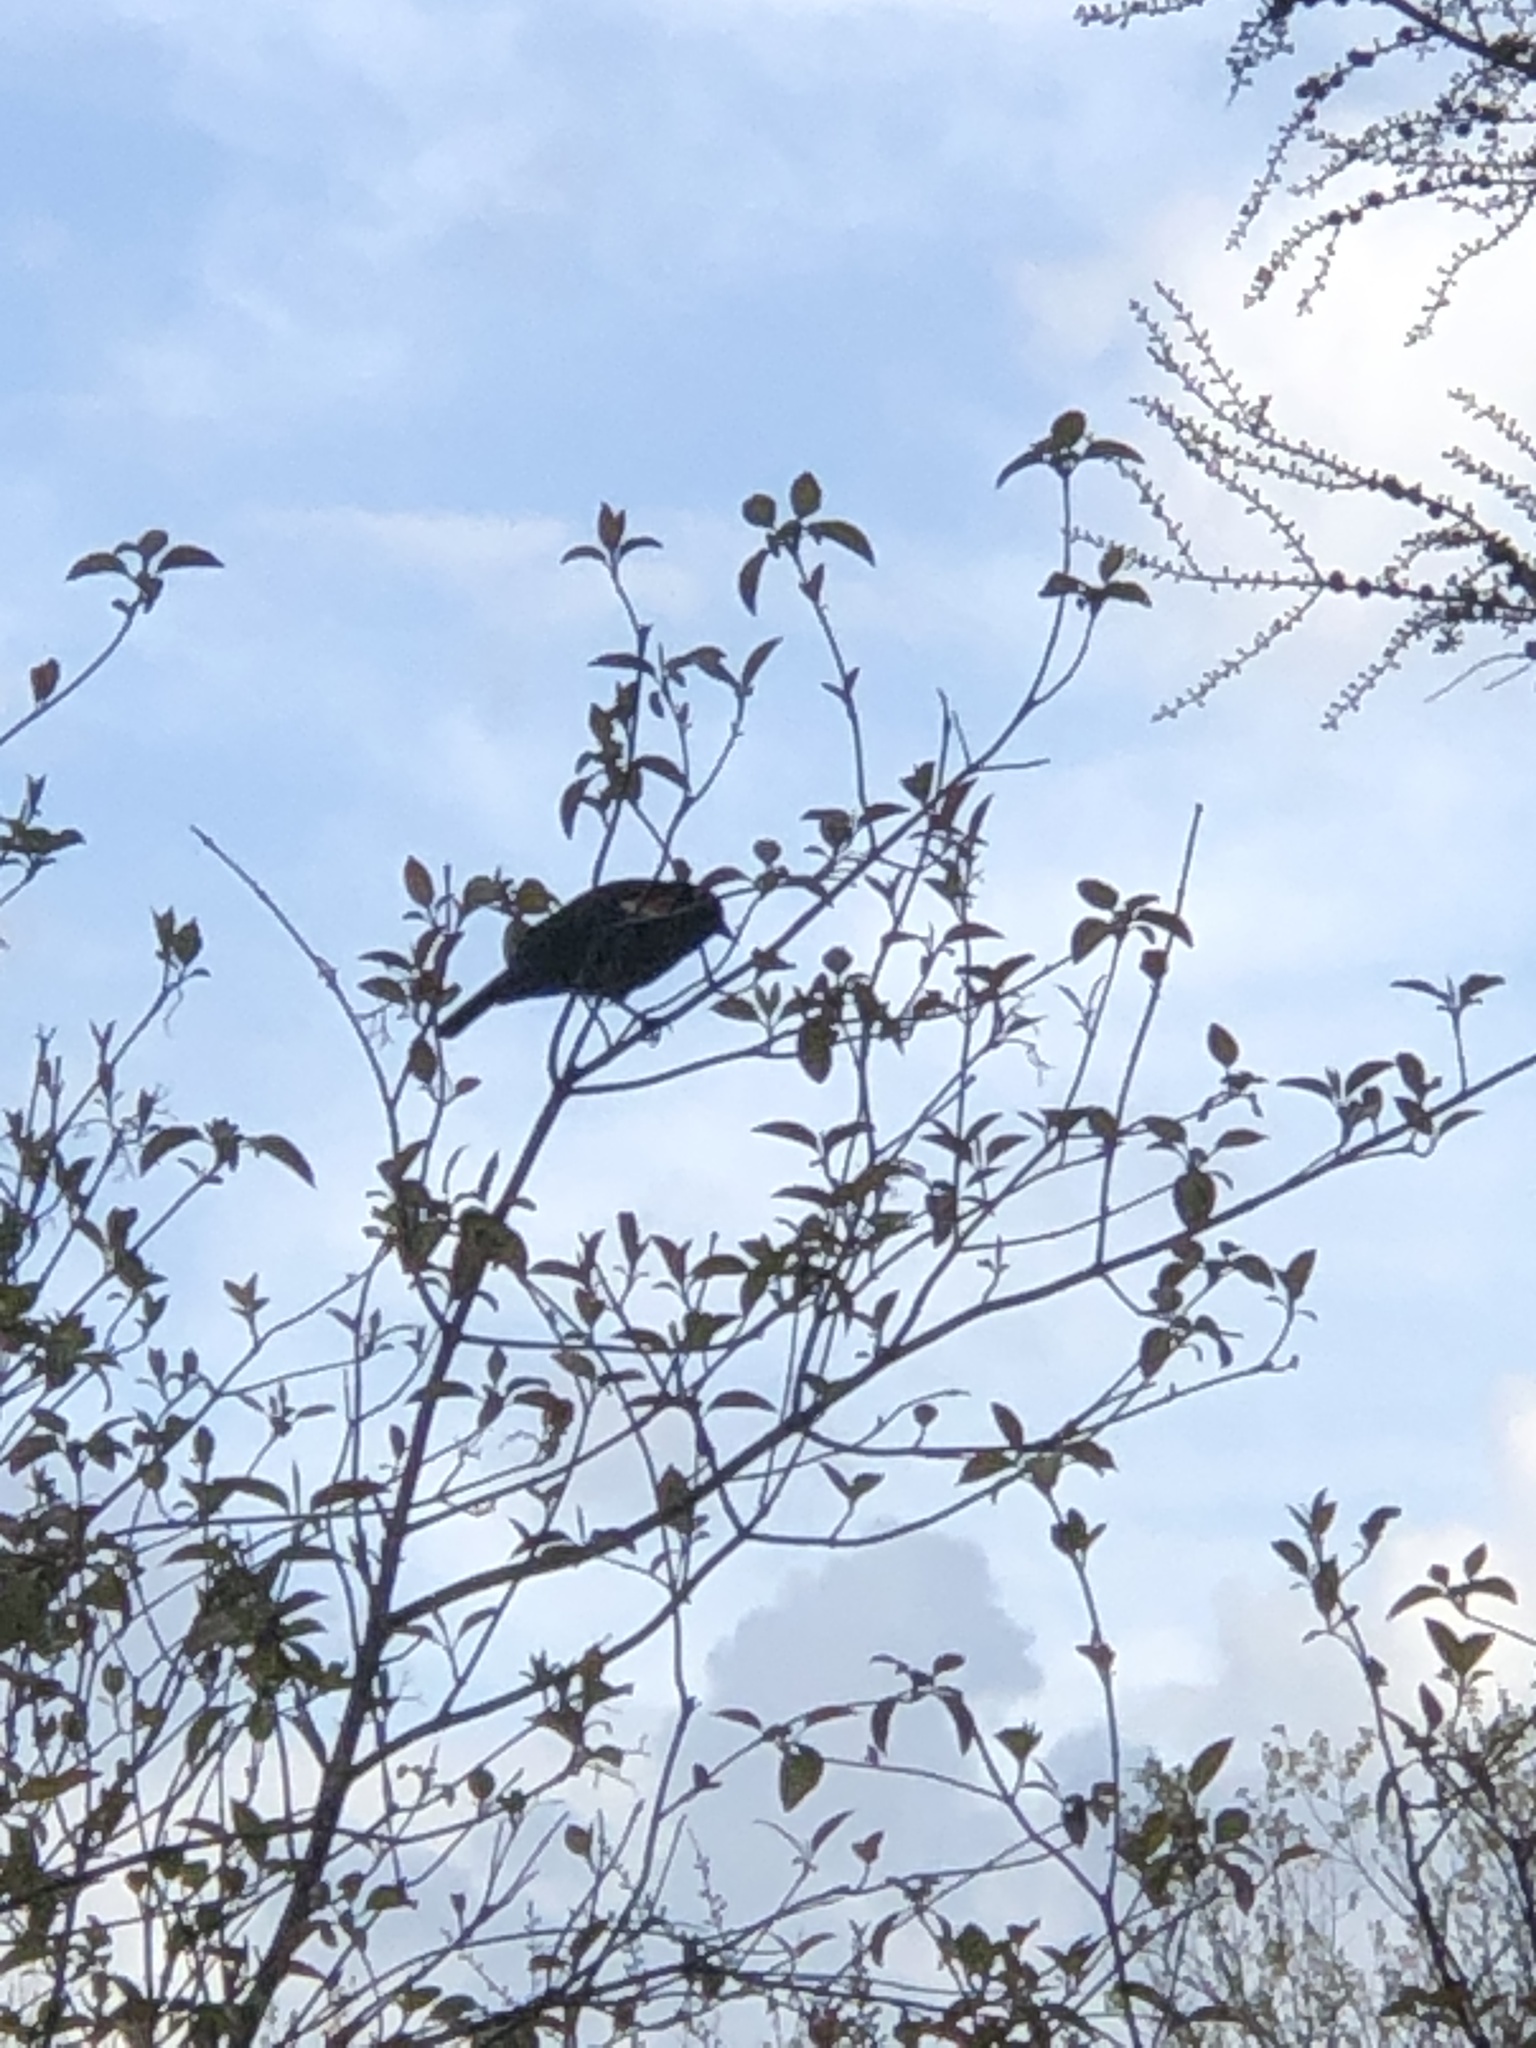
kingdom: Animalia
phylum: Chordata
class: Aves
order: Passeriformes
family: Icteridae
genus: Agelaius
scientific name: Agelaius phoeniceus
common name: Red-winged blackbird
